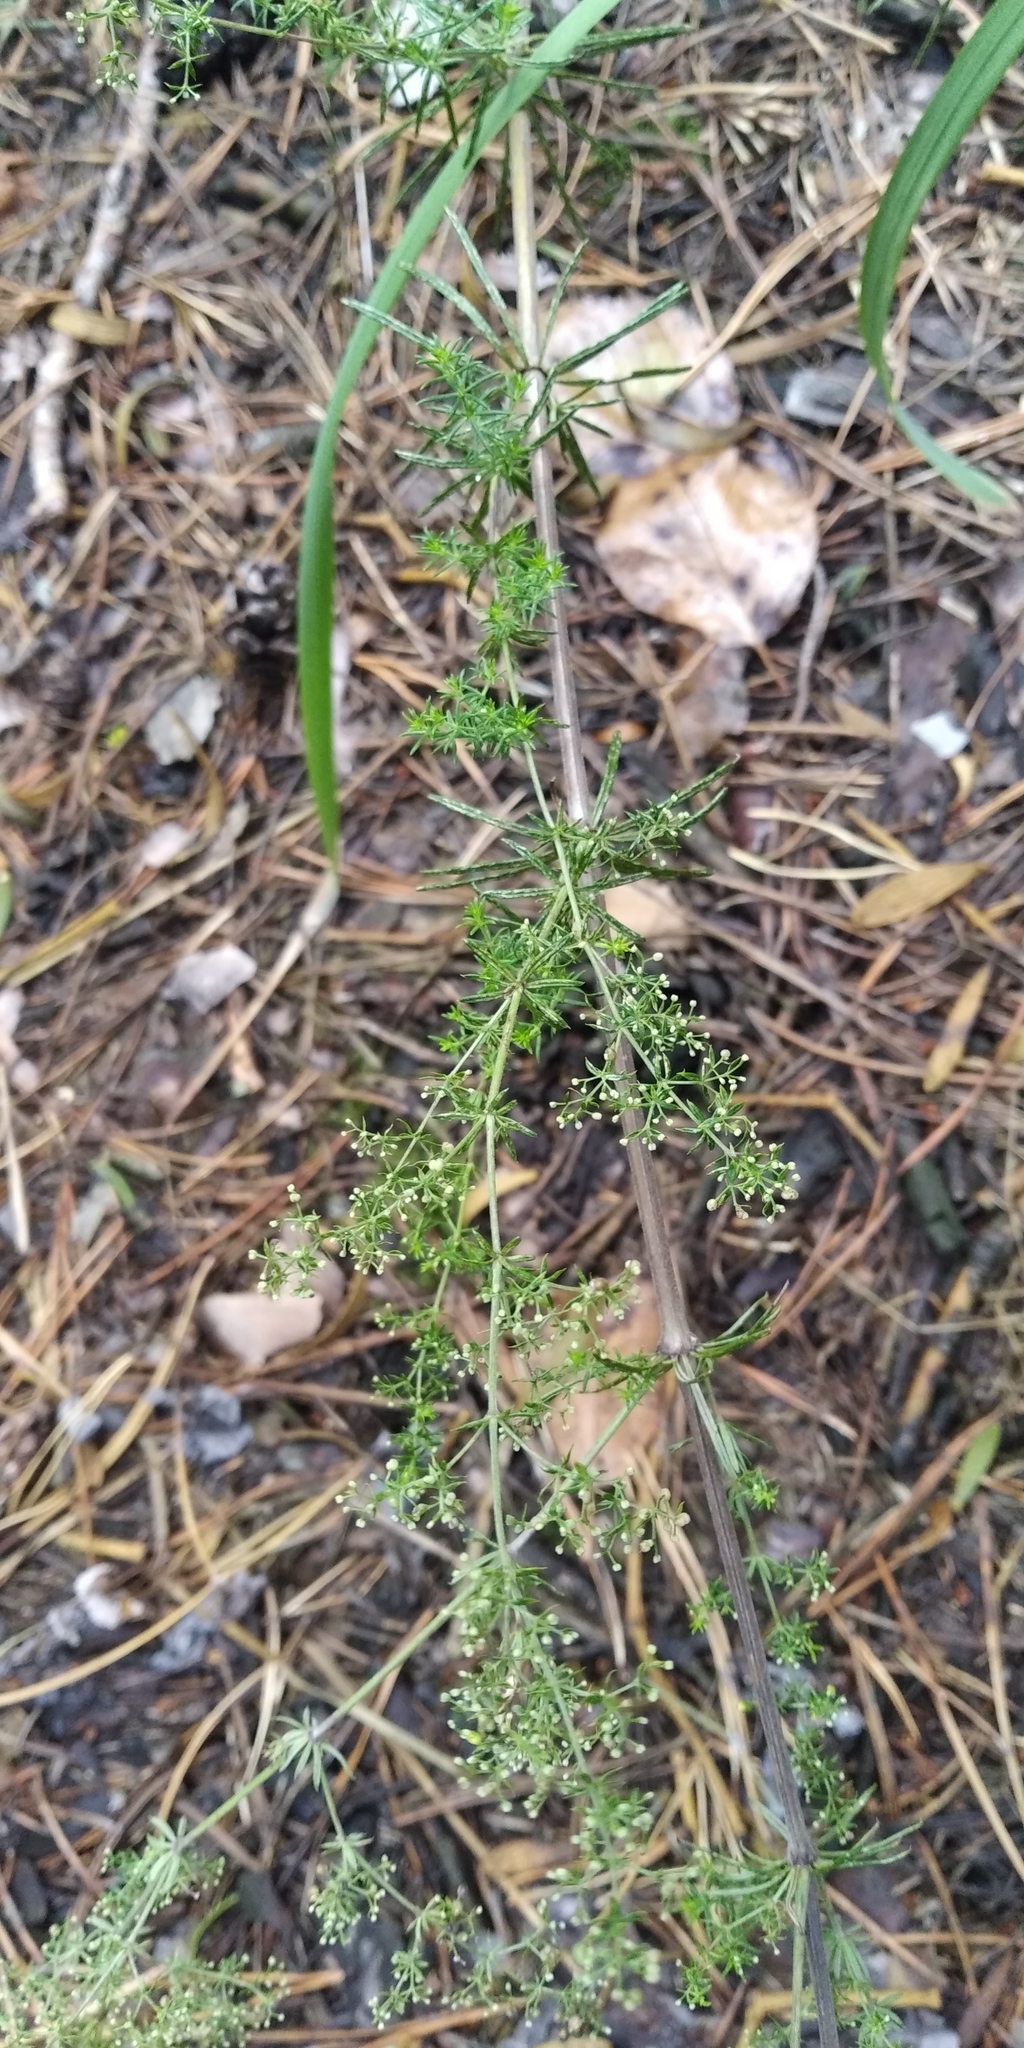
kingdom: Plantae
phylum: Tracheophyta
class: Magnoliopsida
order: Gentianales
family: Rubiaceae
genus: Galium
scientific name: Galium verum
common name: Lady's bedstraw
